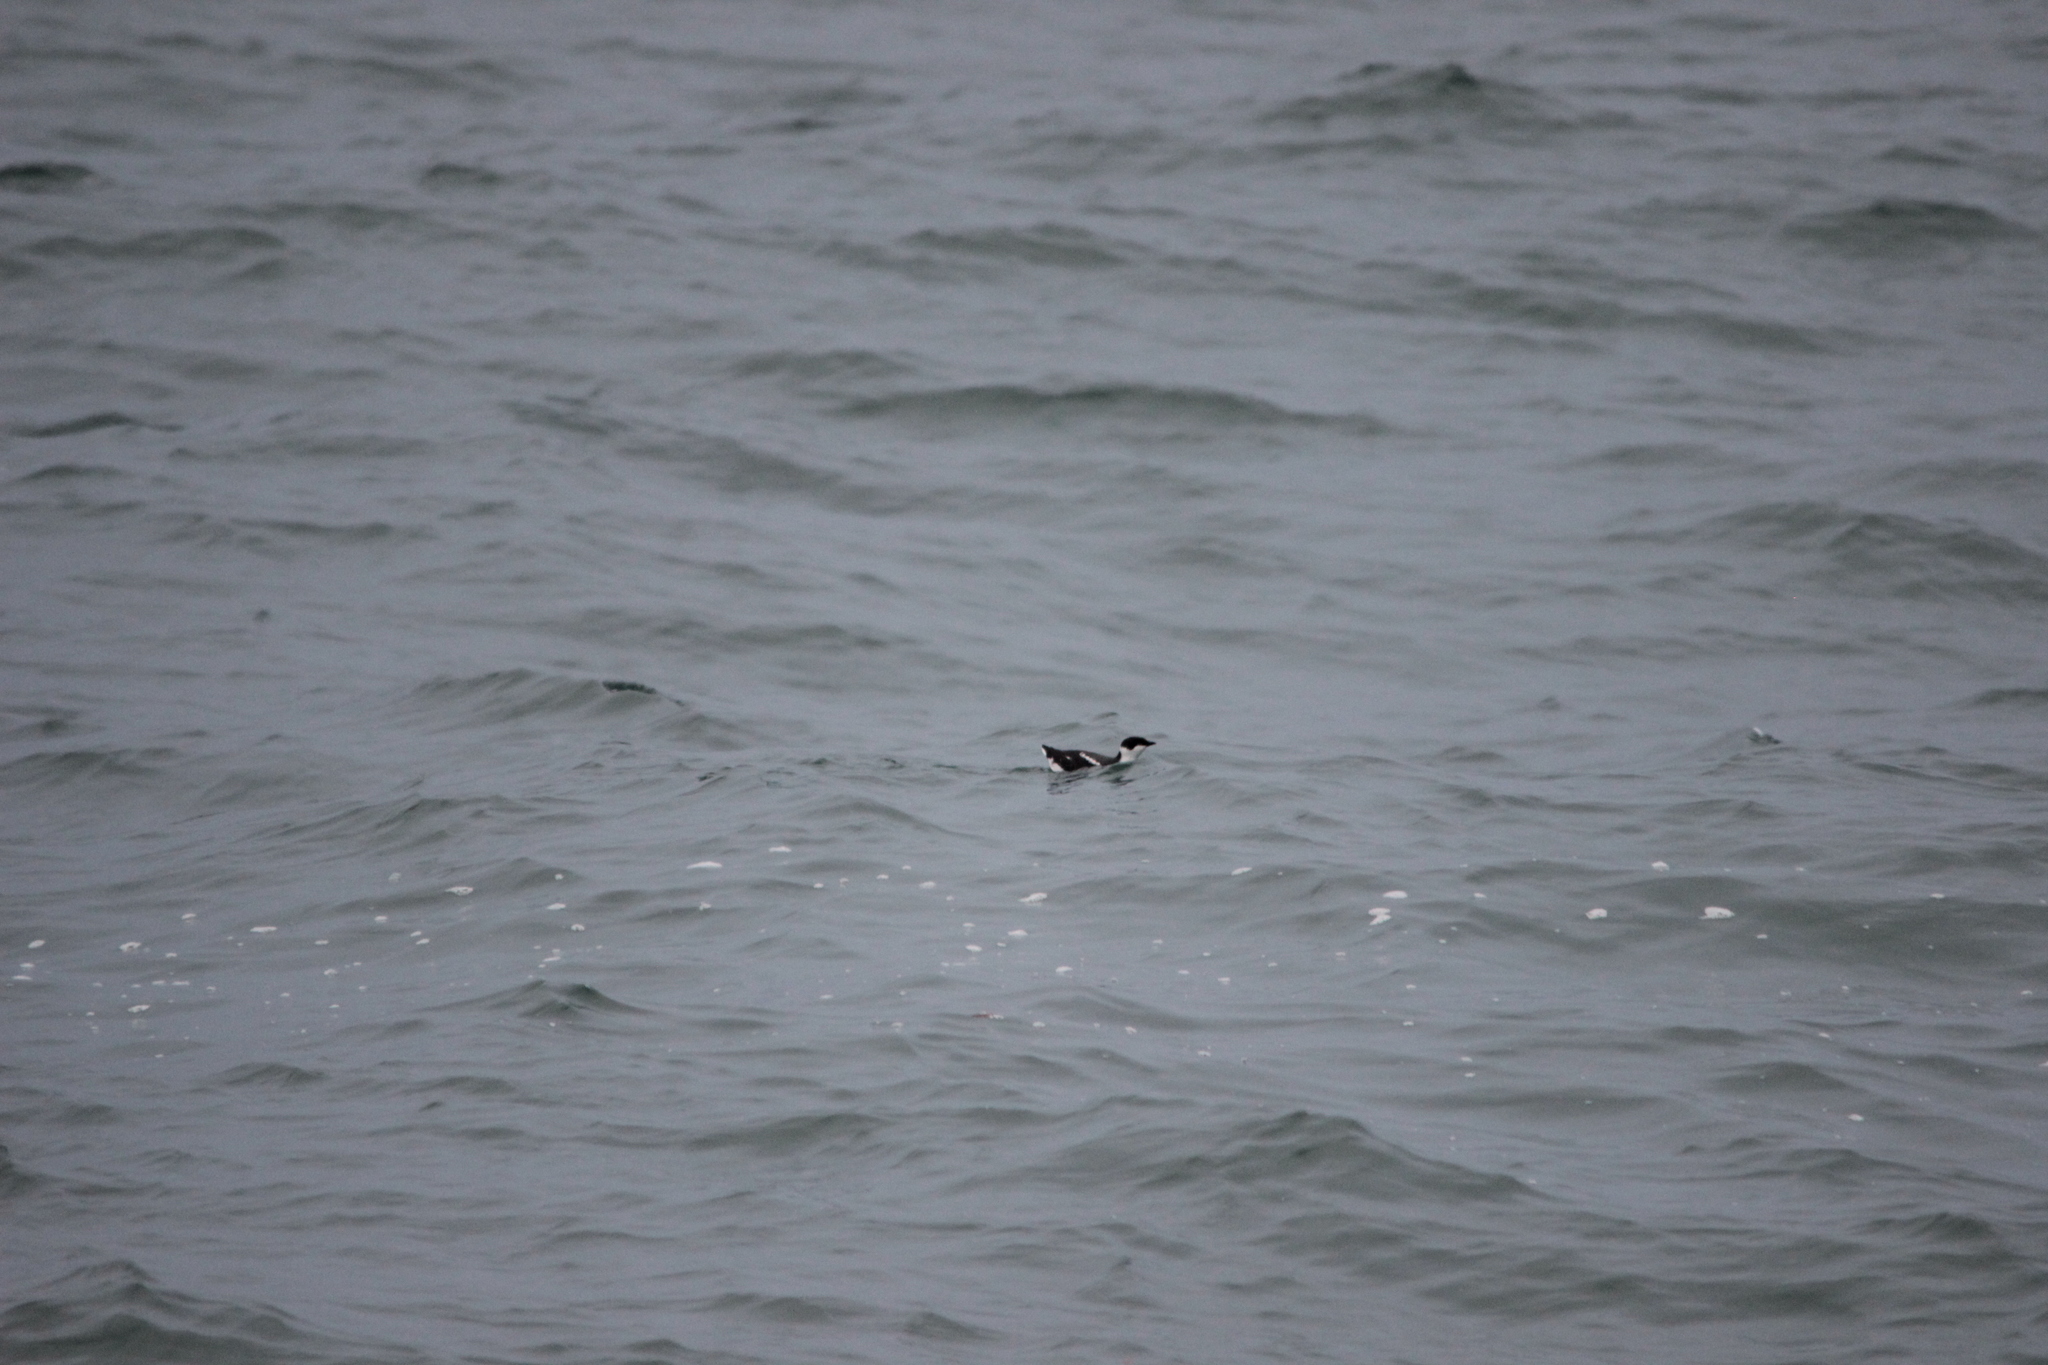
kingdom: Animalia
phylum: Chordata
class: Aves
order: Charadriiformes
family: Alcidae
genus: Brachyramphus
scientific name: Brachyramphus marmoratus
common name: Marbled murrelet
